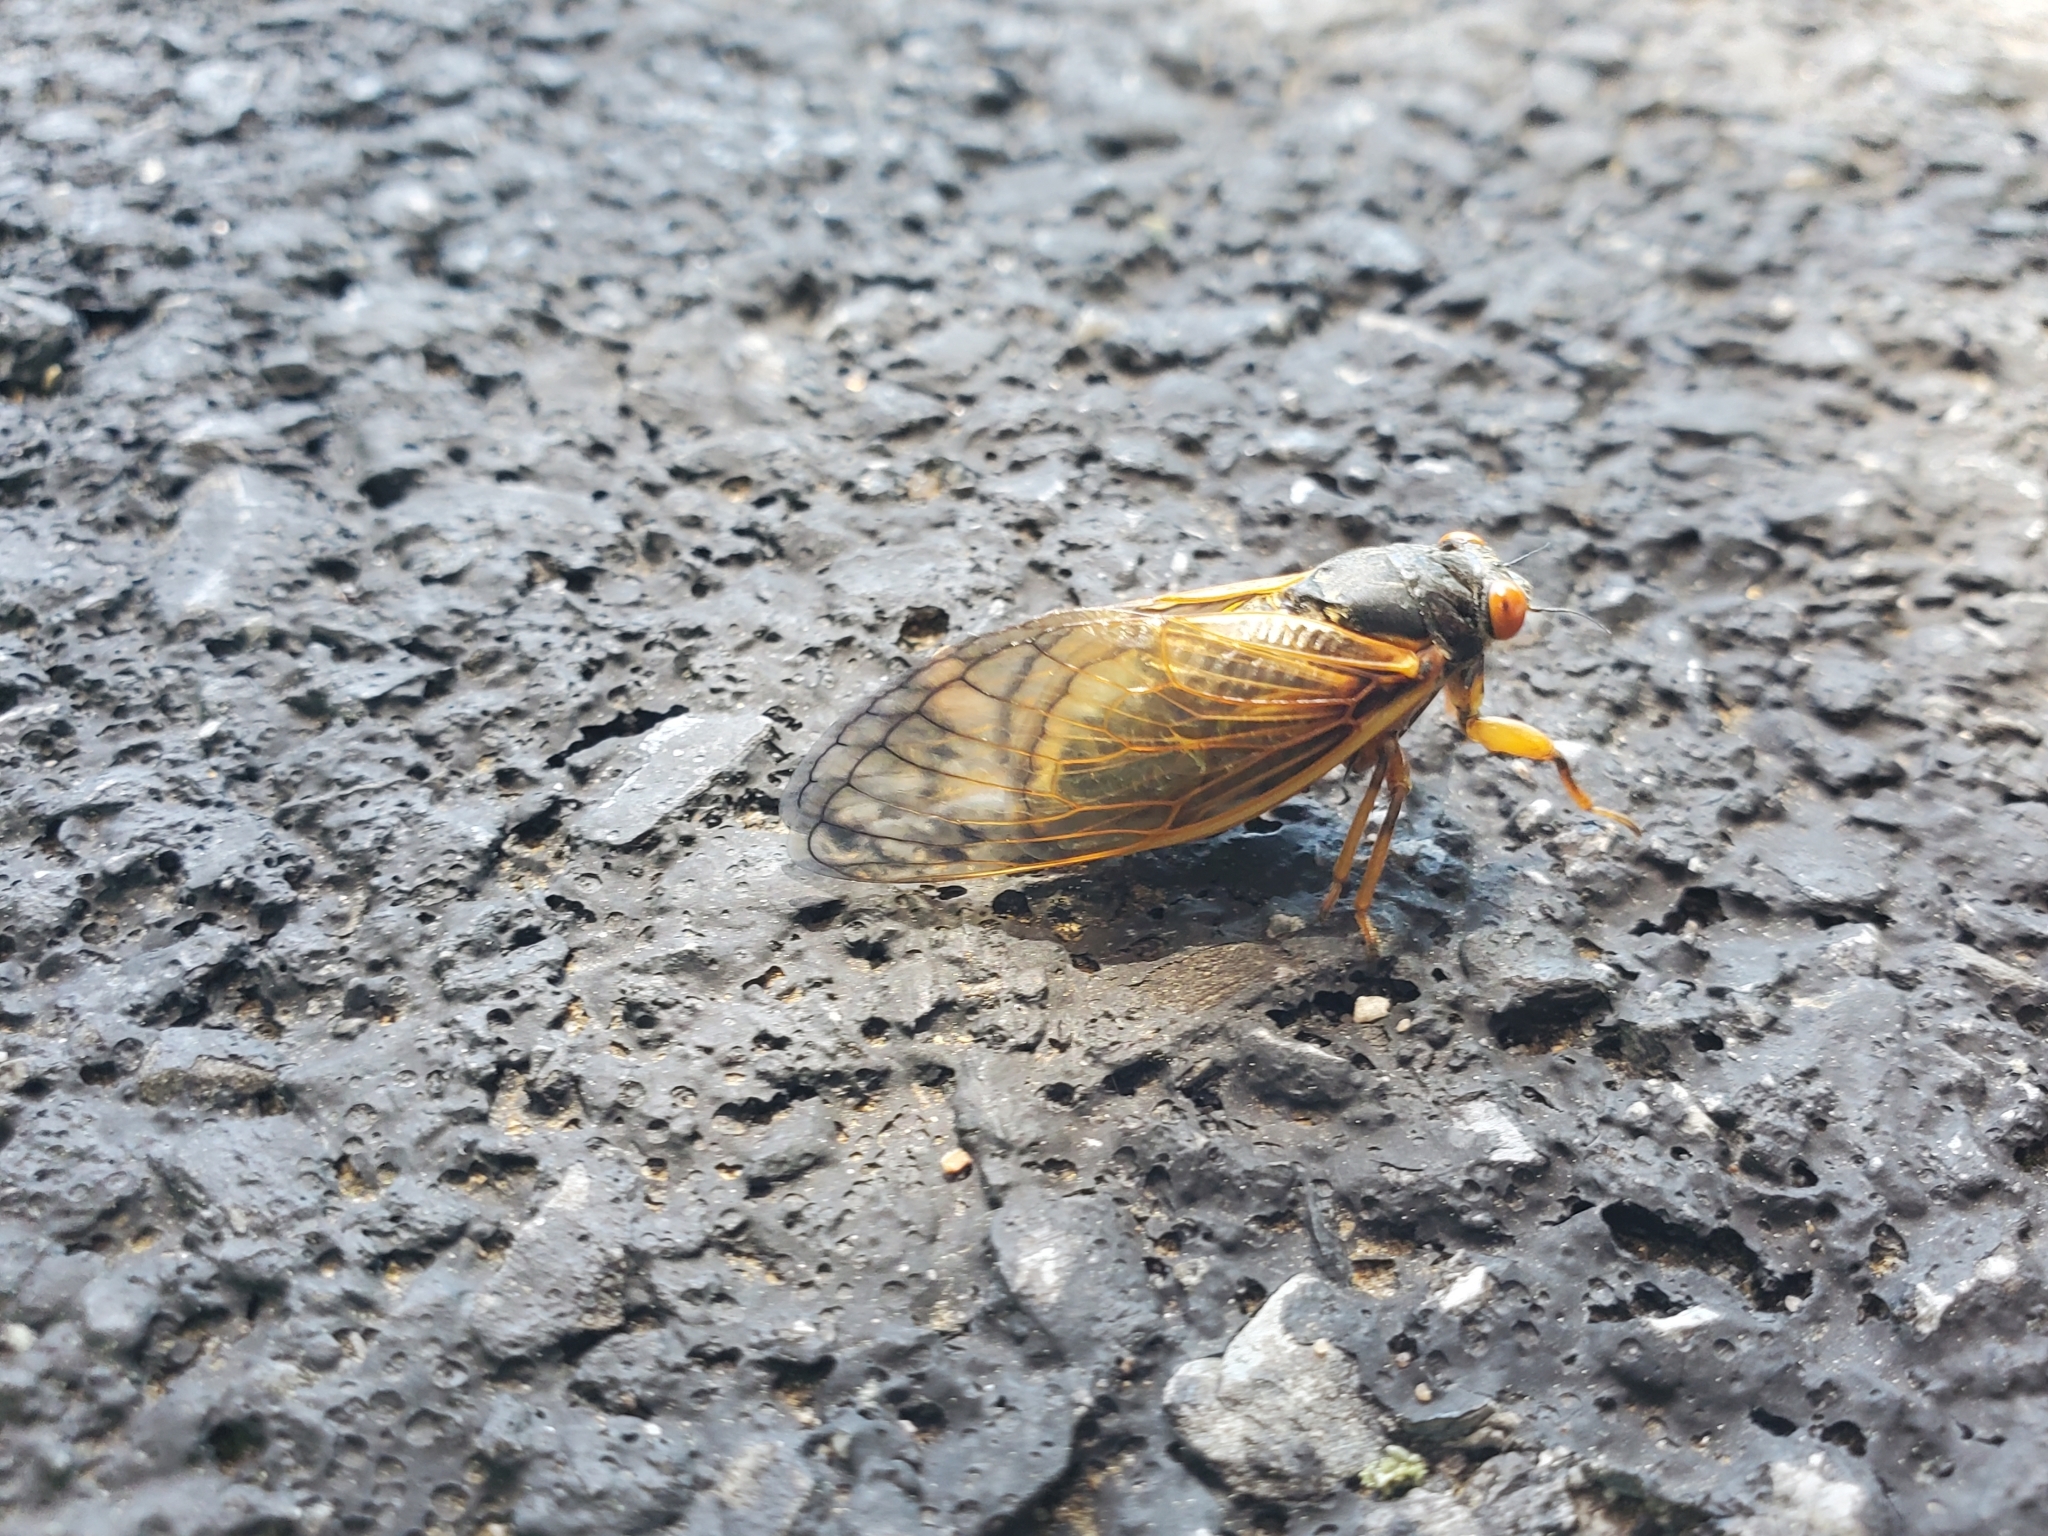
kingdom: Animalia
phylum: Arthropoda
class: Insecta
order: Hemiptera
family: Cicadidae
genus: Magicicada
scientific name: Magicicada cassini
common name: Cassin's 17-year cicada
